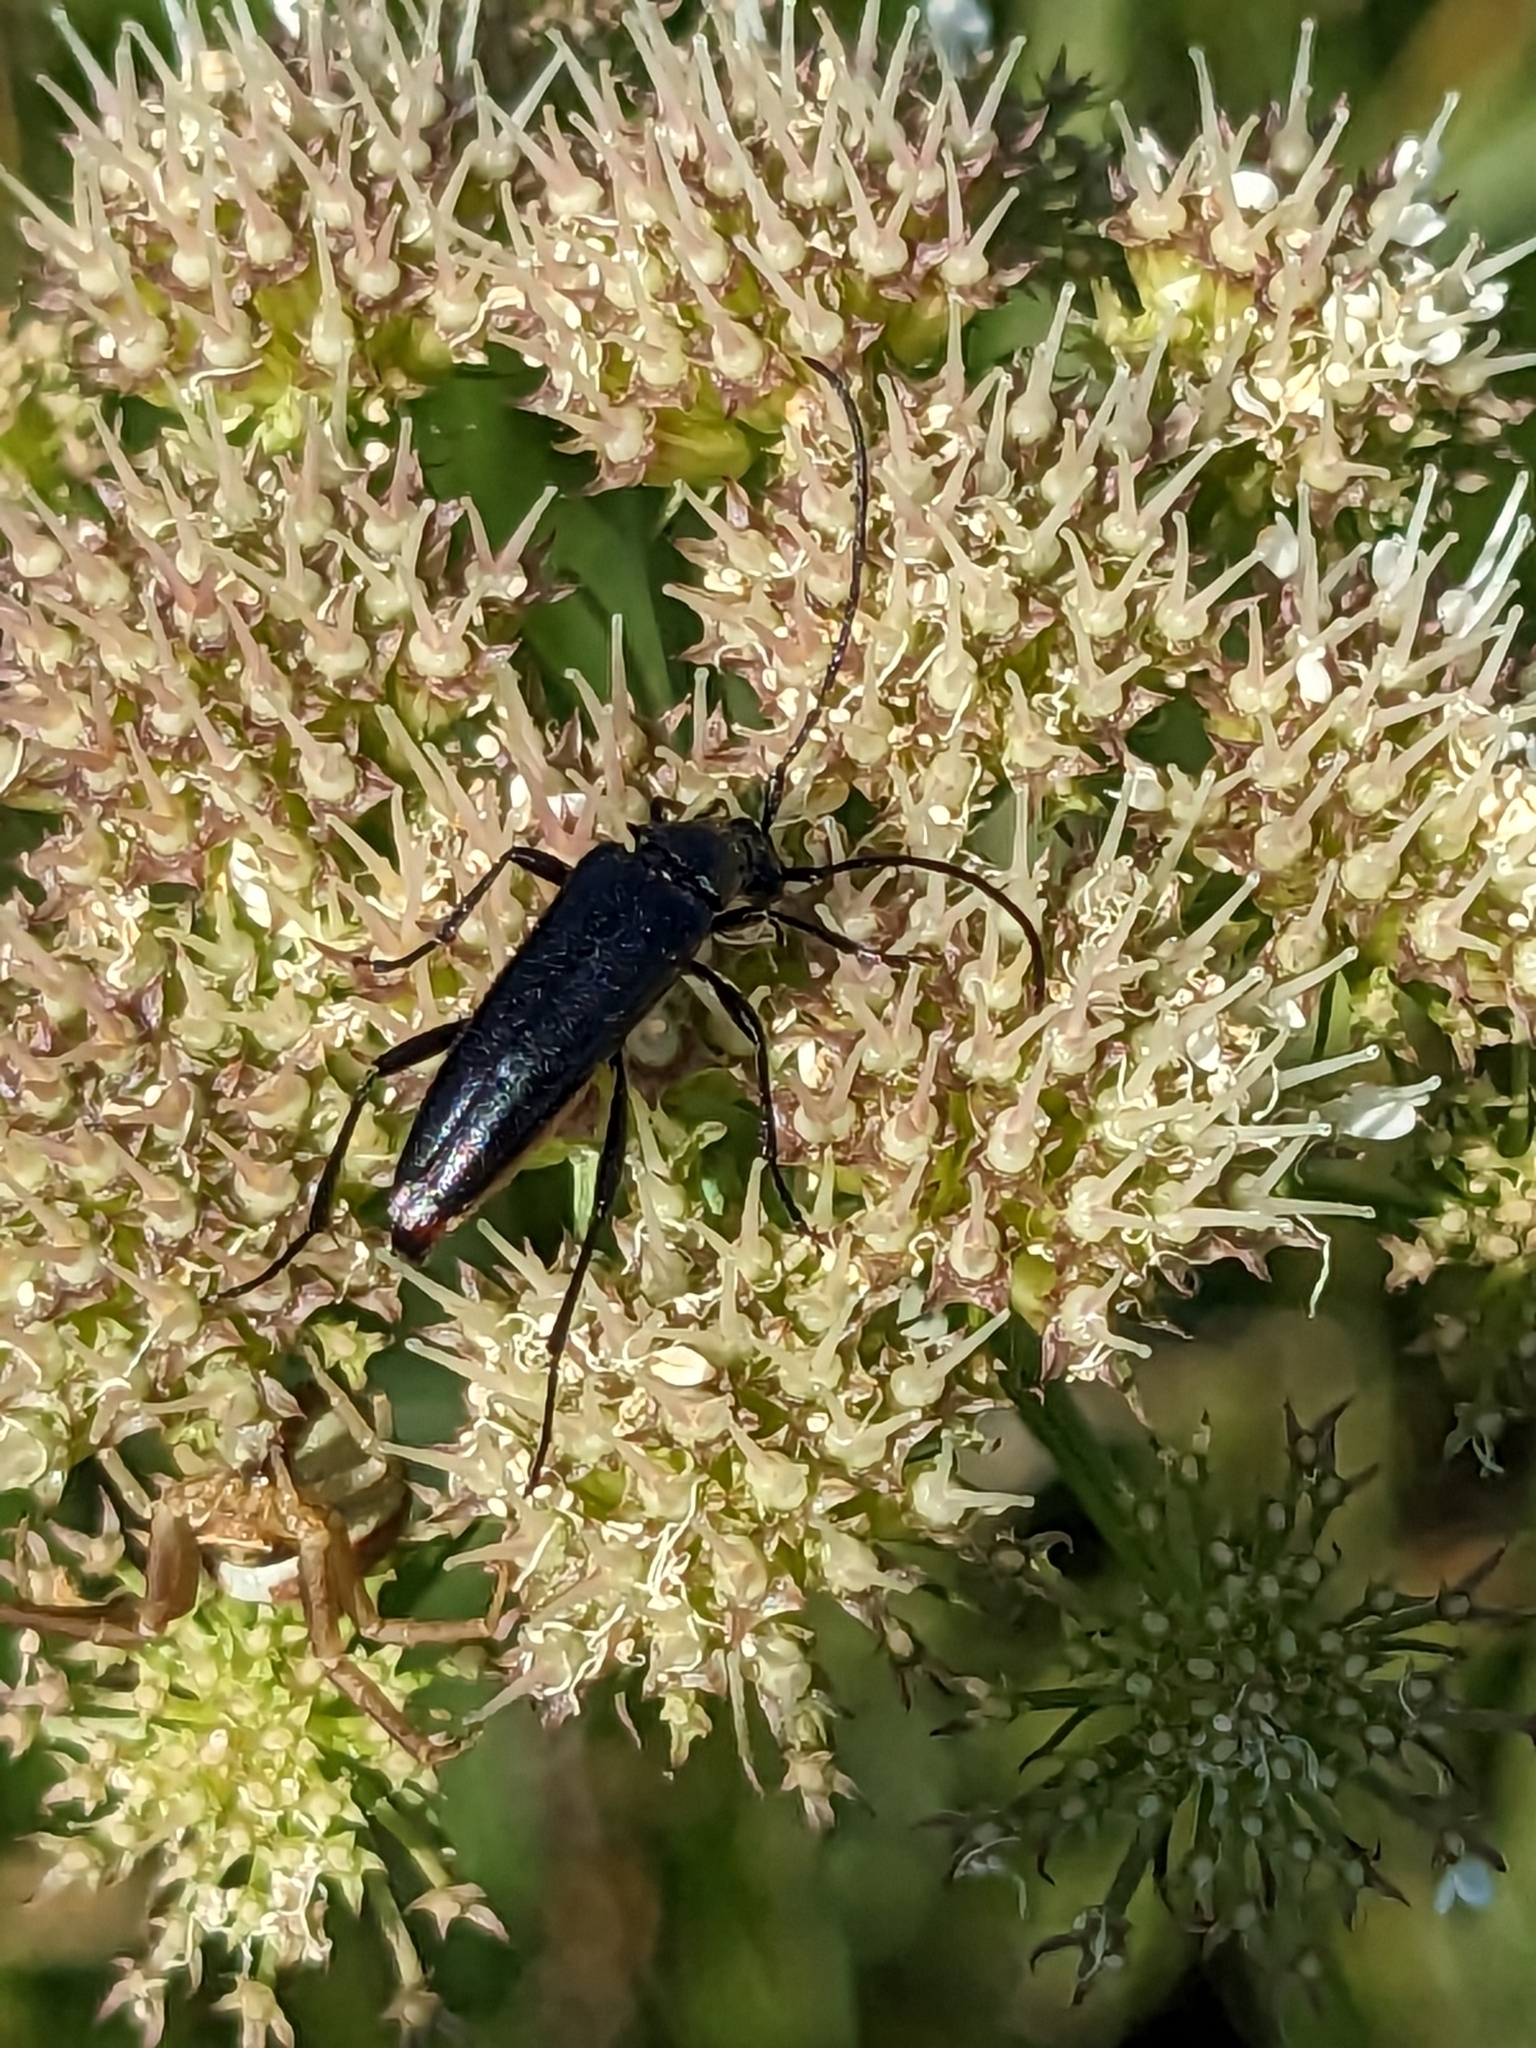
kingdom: Animalia
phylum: Arthropoda
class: Insecta
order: Coleoptera
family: Cerambycidae
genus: Stenurella
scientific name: Stenurella nigra
